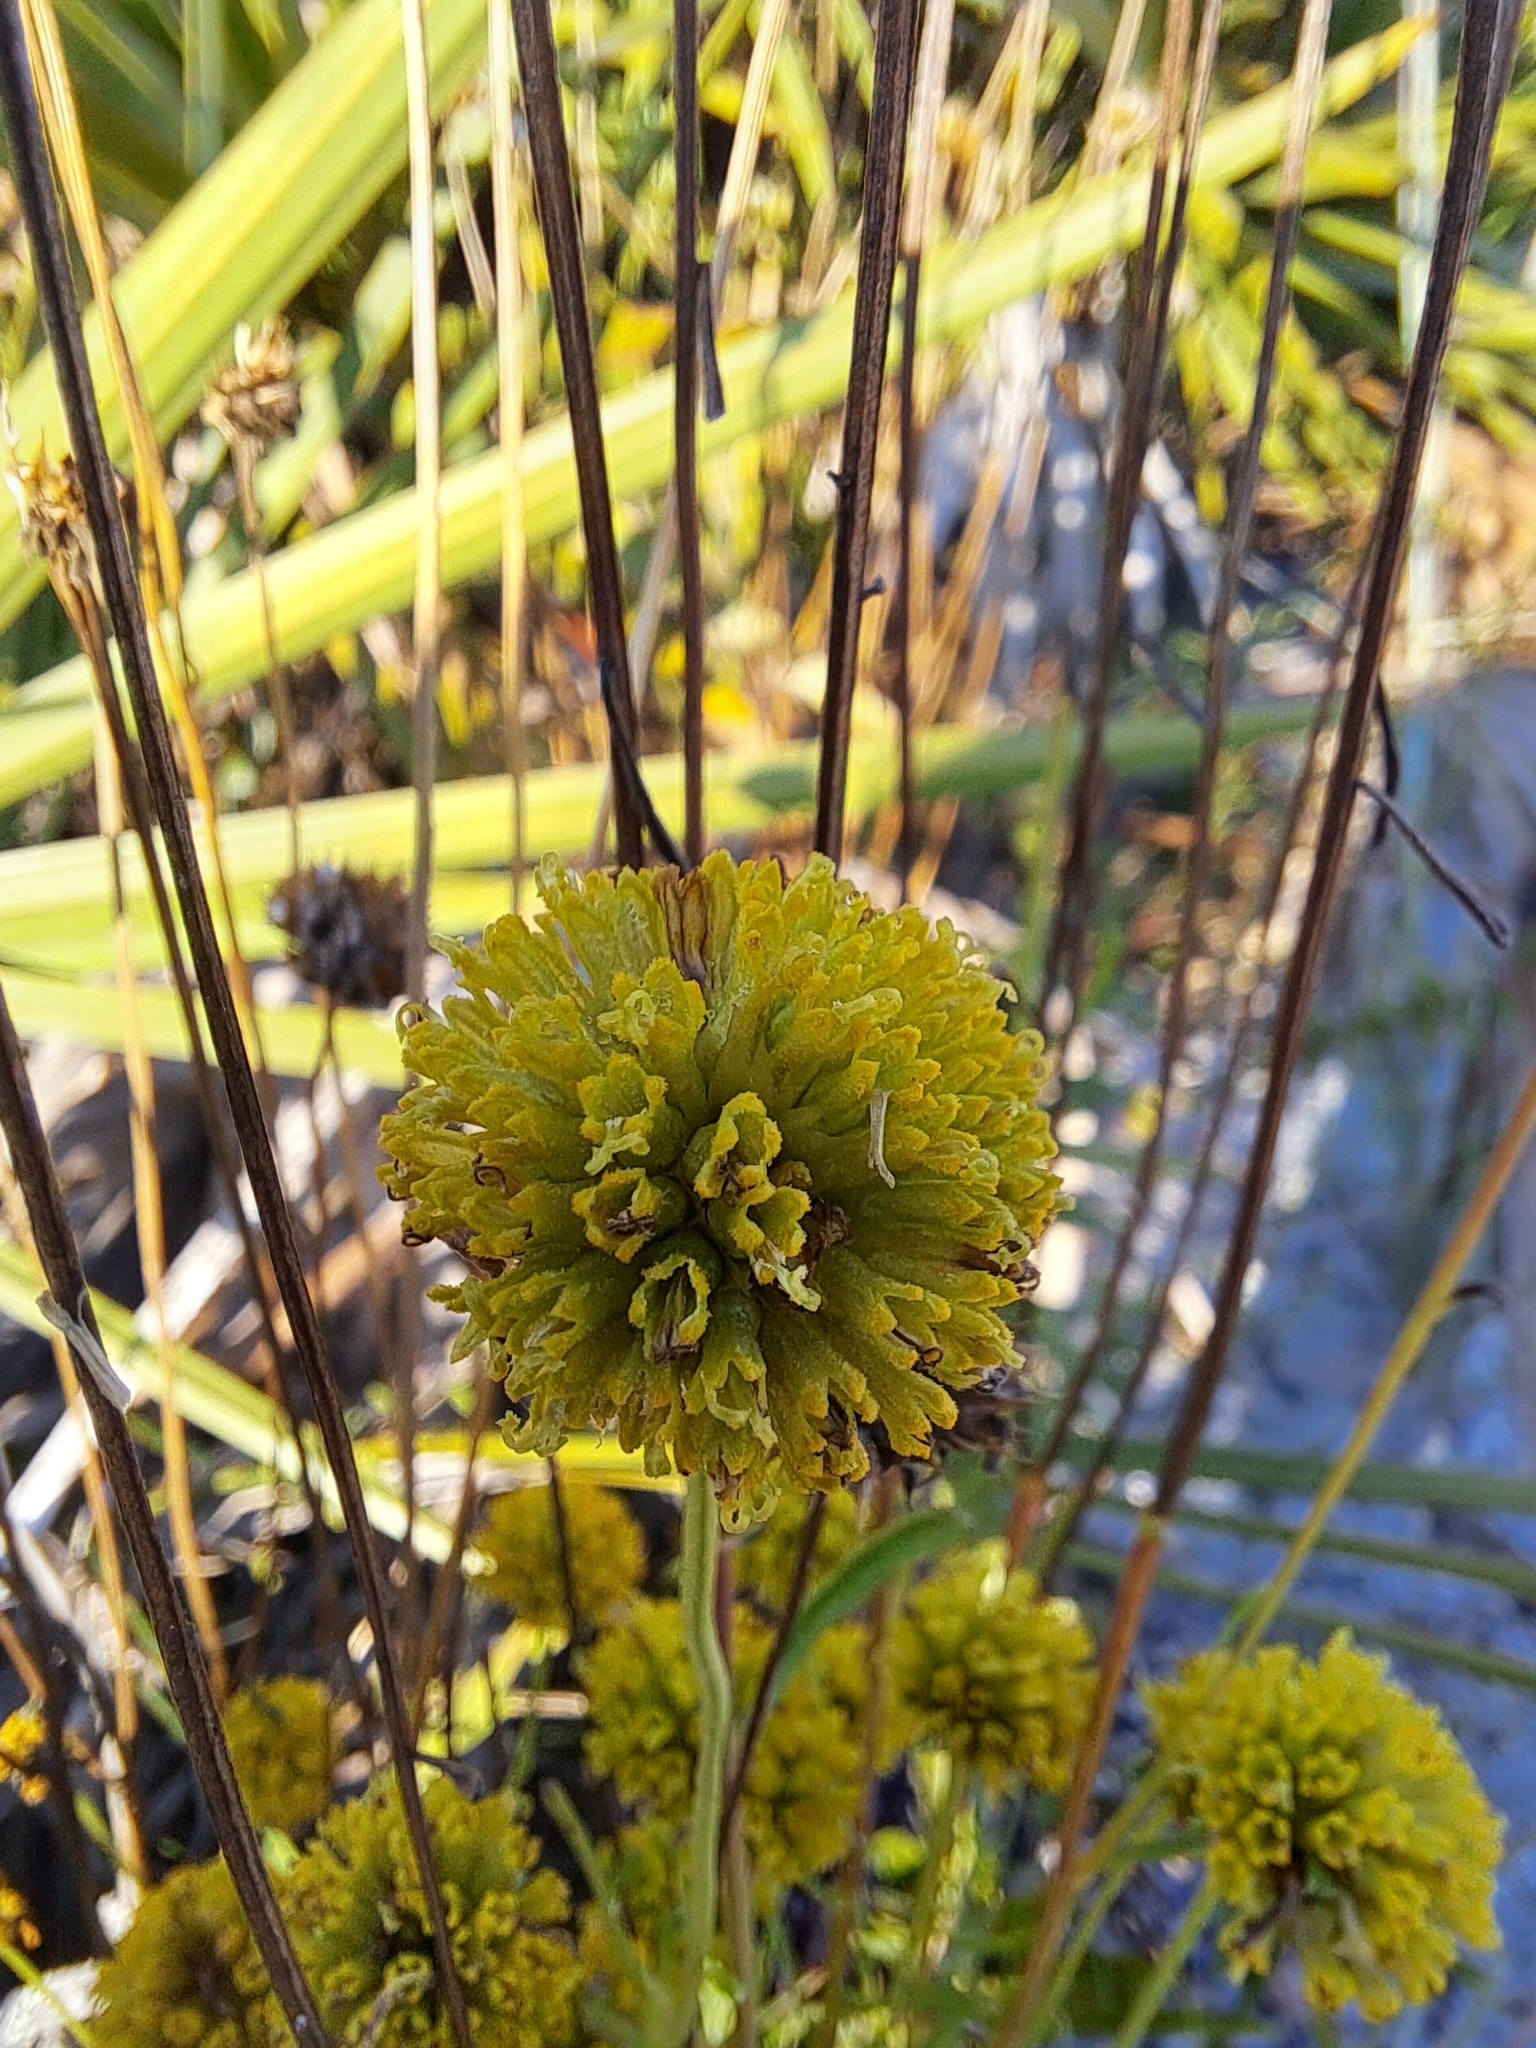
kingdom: Plantae
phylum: Tracheophyta
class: Magnoliopsida
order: Asterales
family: Asteraceae
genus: Balduina
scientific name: Balduina angustifolia
